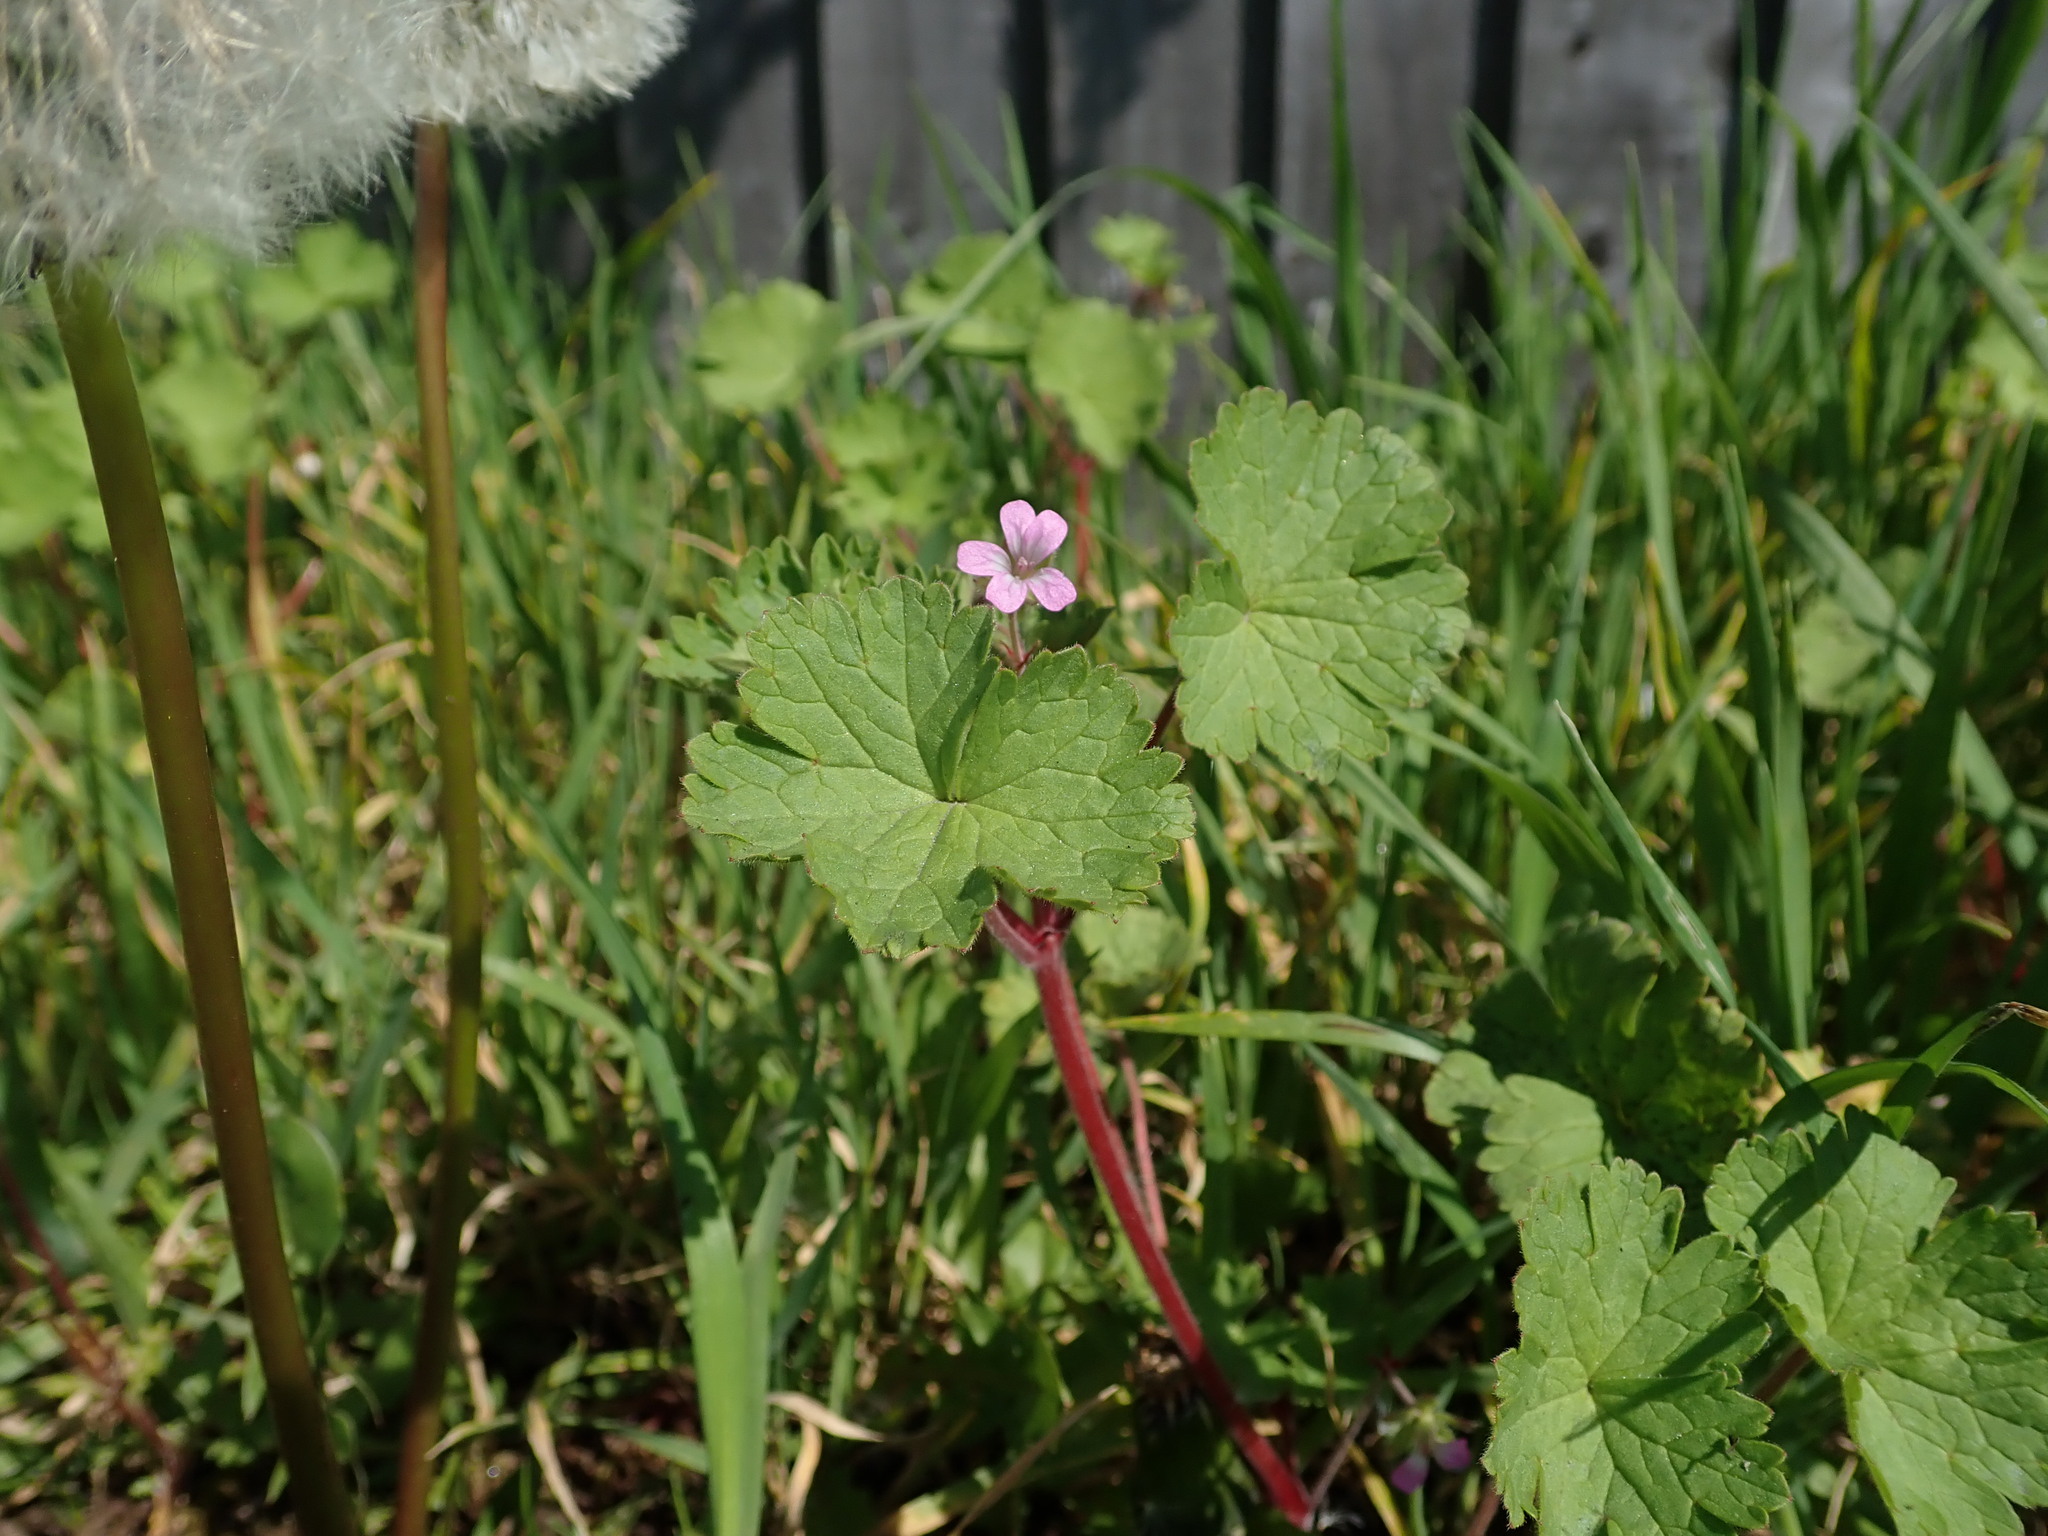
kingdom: Plantae
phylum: Tracheophyta
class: Magnoliopsida
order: Geraniales
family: Geraniaceae
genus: Geranium
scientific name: Geranium rotundifolium
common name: Round-leaved crane's-bill
